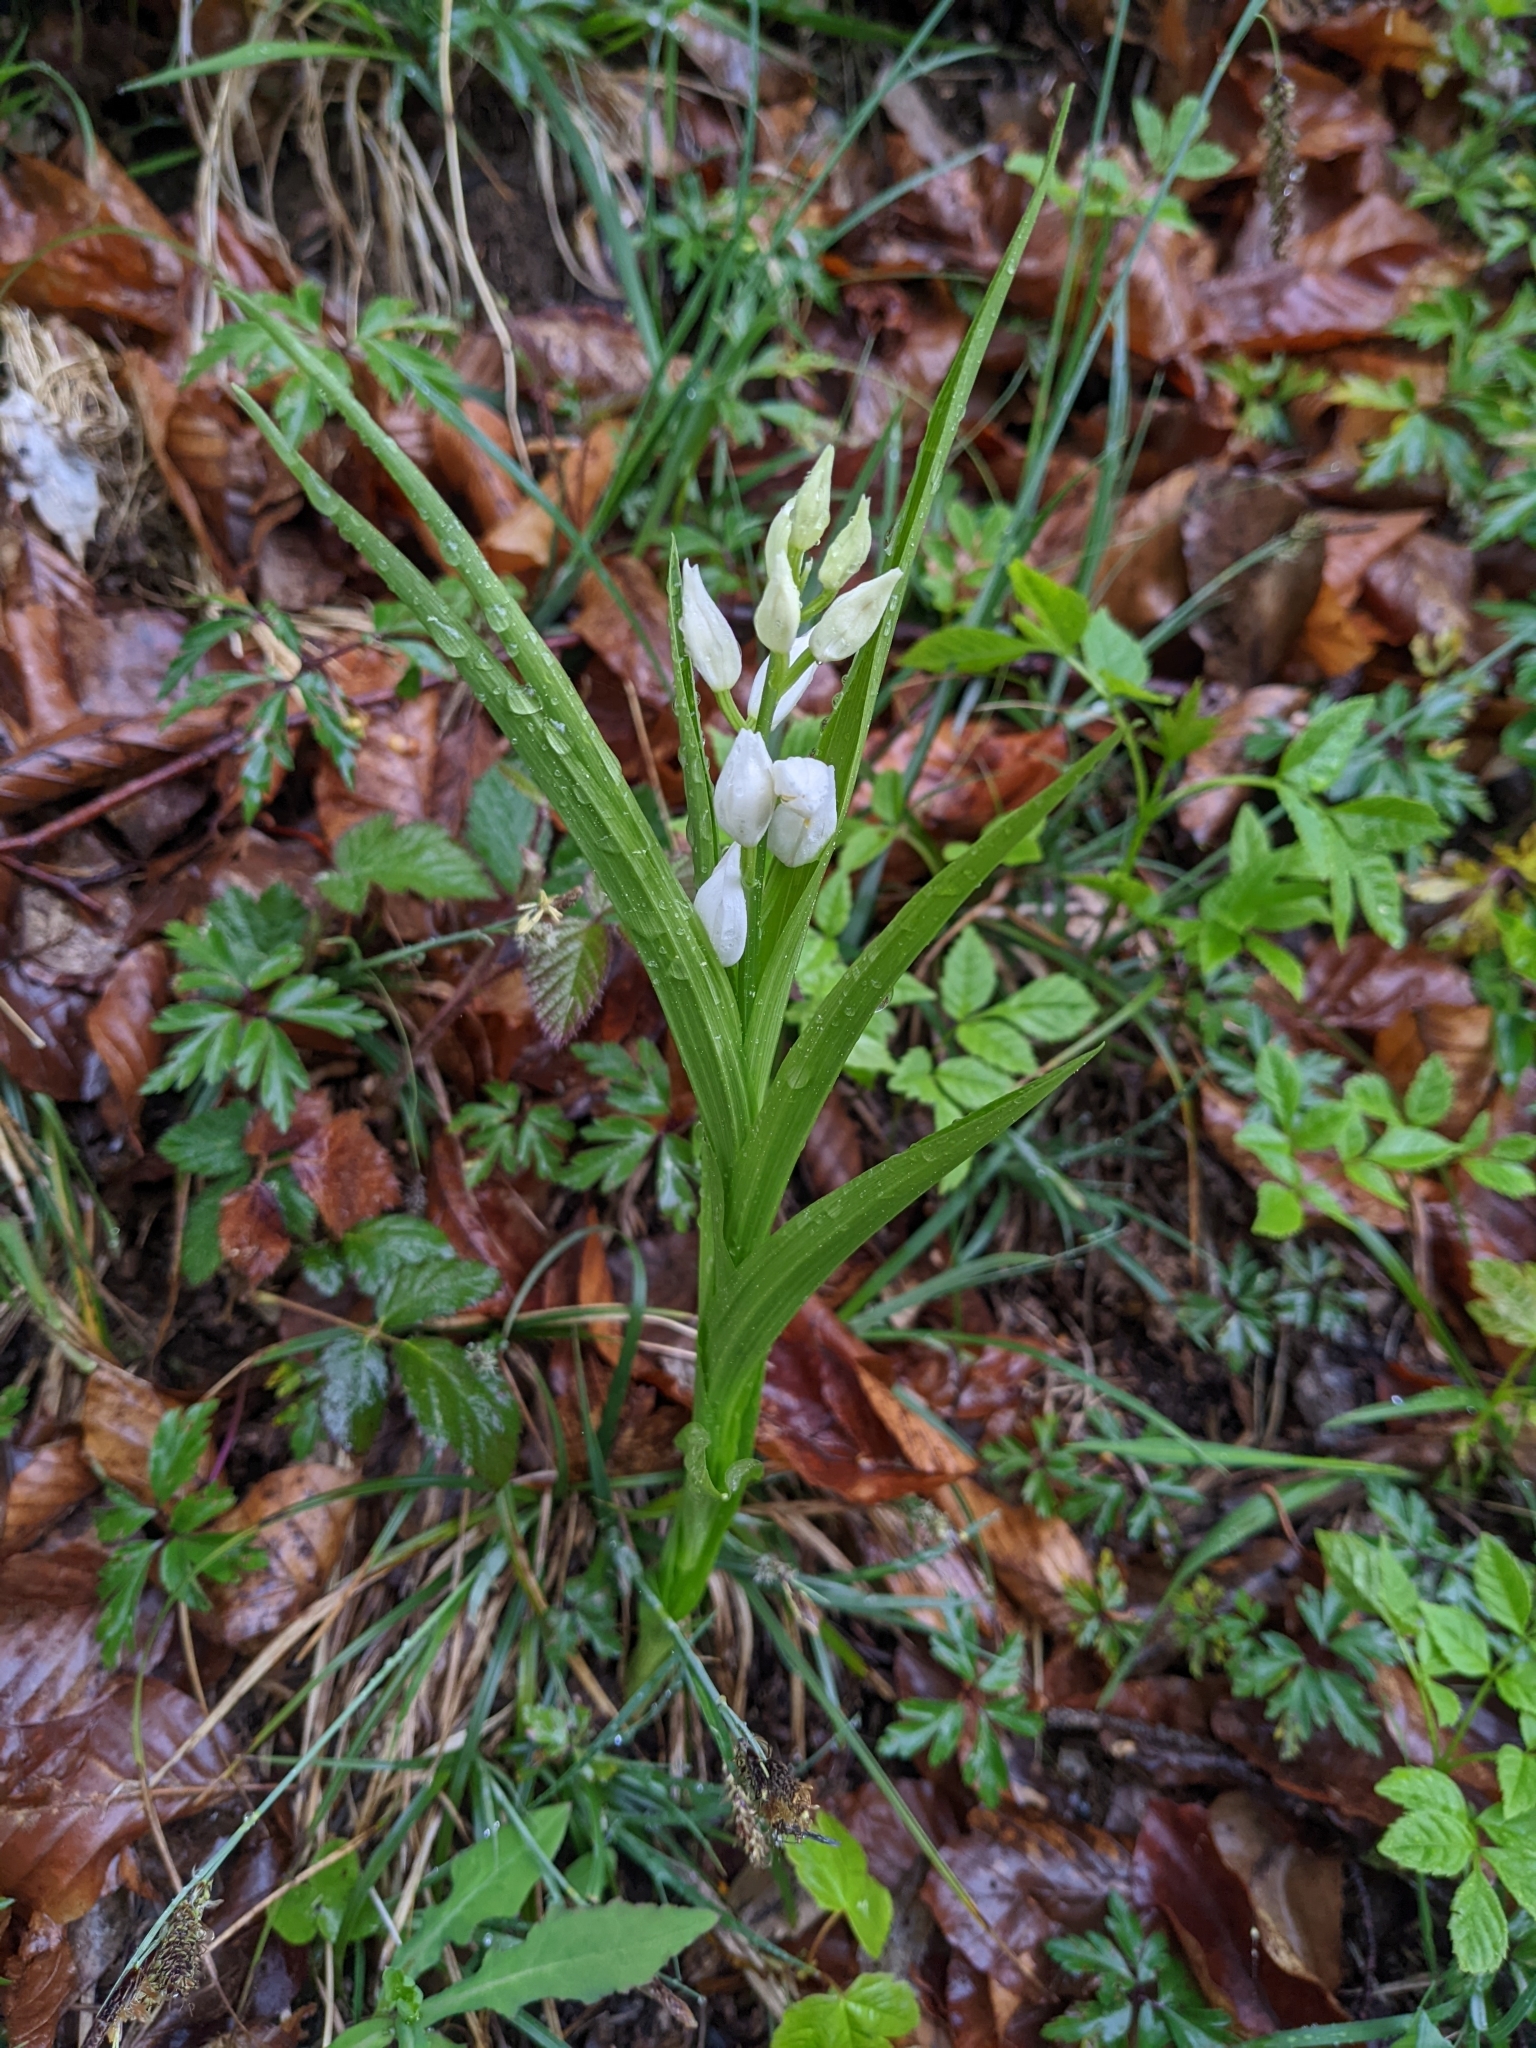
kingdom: Plantae
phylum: Tracheophyta
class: Liliopsida
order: Asparagales
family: Orchidaceae
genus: Cephalanthera
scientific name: Cephalanthera longifolia
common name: Narrow-leaved helleborine
